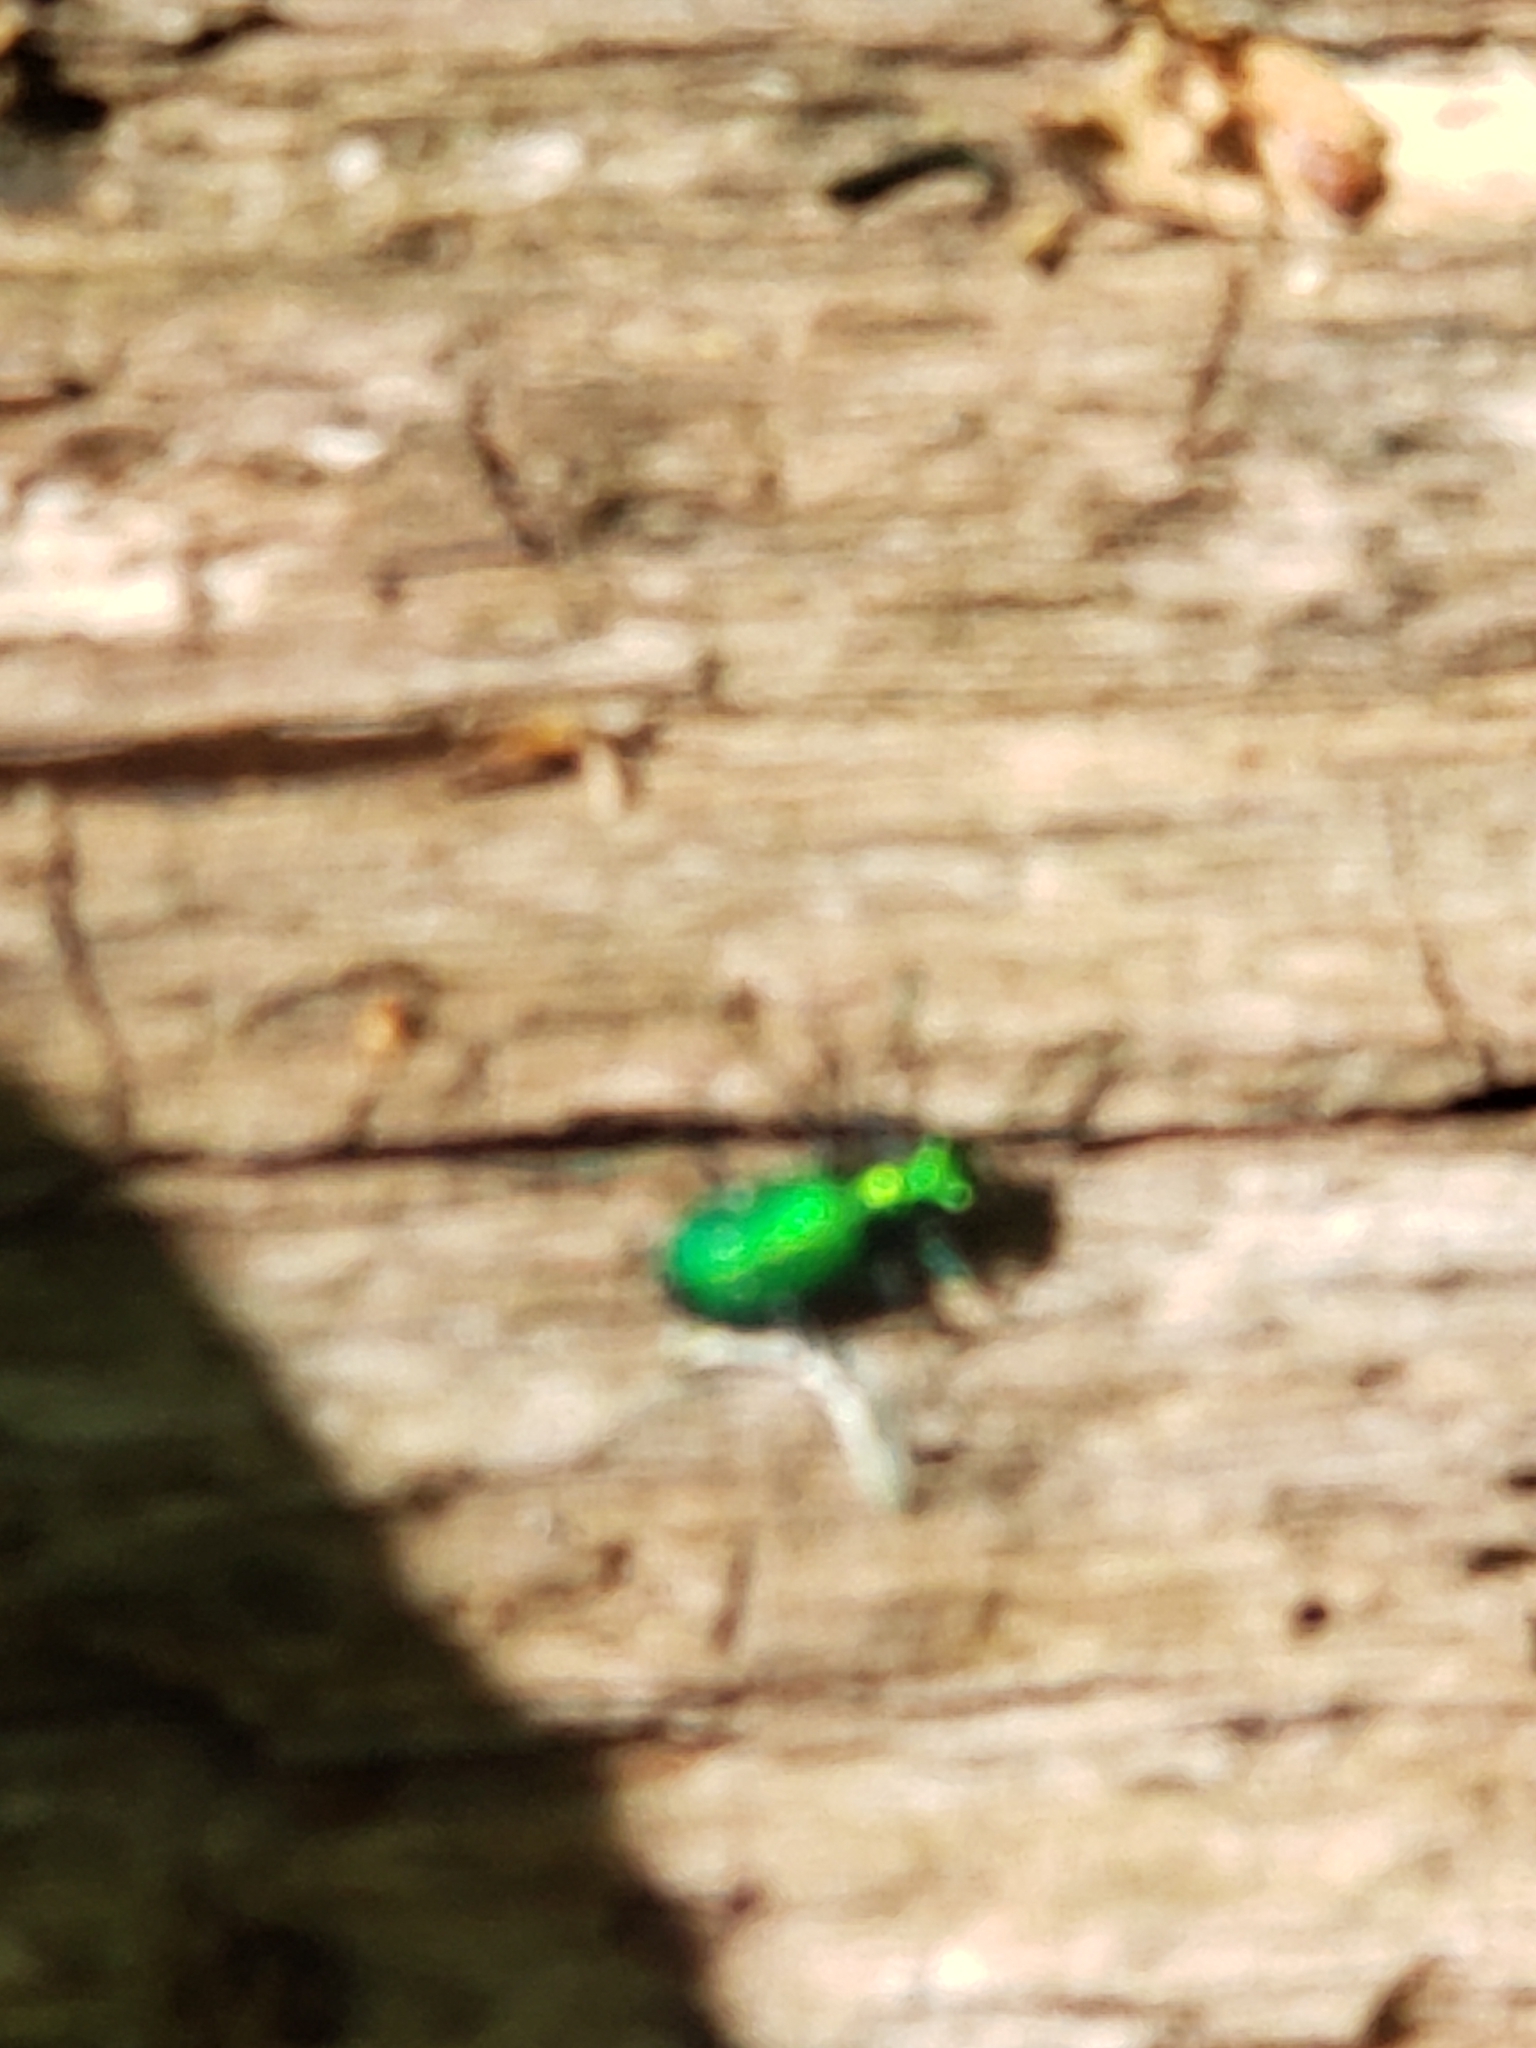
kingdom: Animalia
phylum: Arthropoda
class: Insecta
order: Coleoptera
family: Carabidae
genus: Cicindela
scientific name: Cicindela sexguttata
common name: Six-spotted tiger beetle
